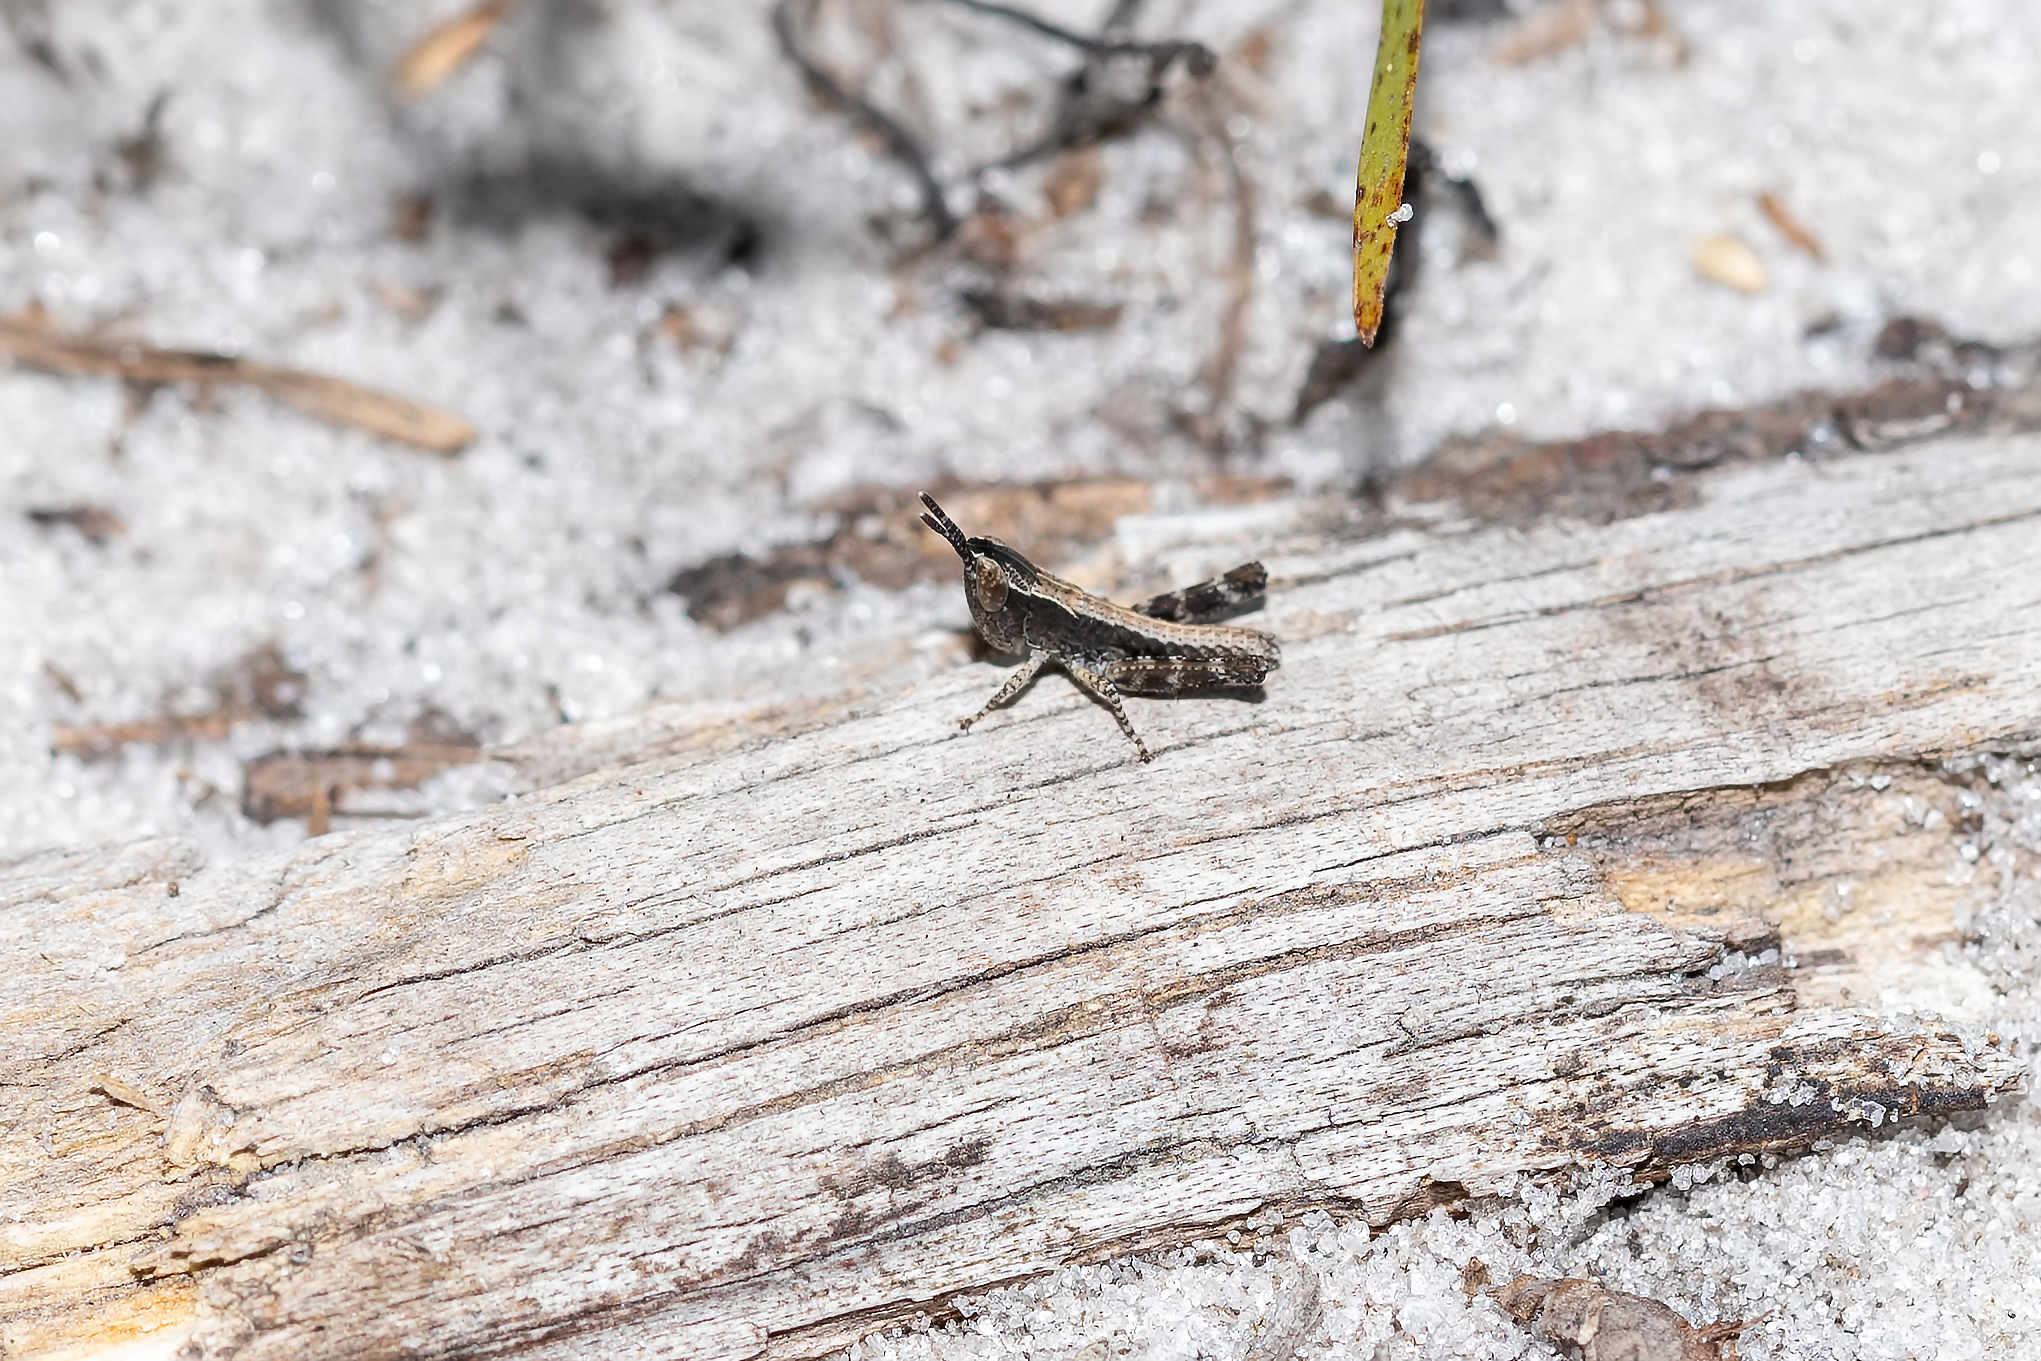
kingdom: Animalia
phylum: Arthropoda
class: Insecta
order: Orthoptera
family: Acrididae
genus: Dichromorpha
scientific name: Dichromorpha viridis
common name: Short-winged green grasshopper
